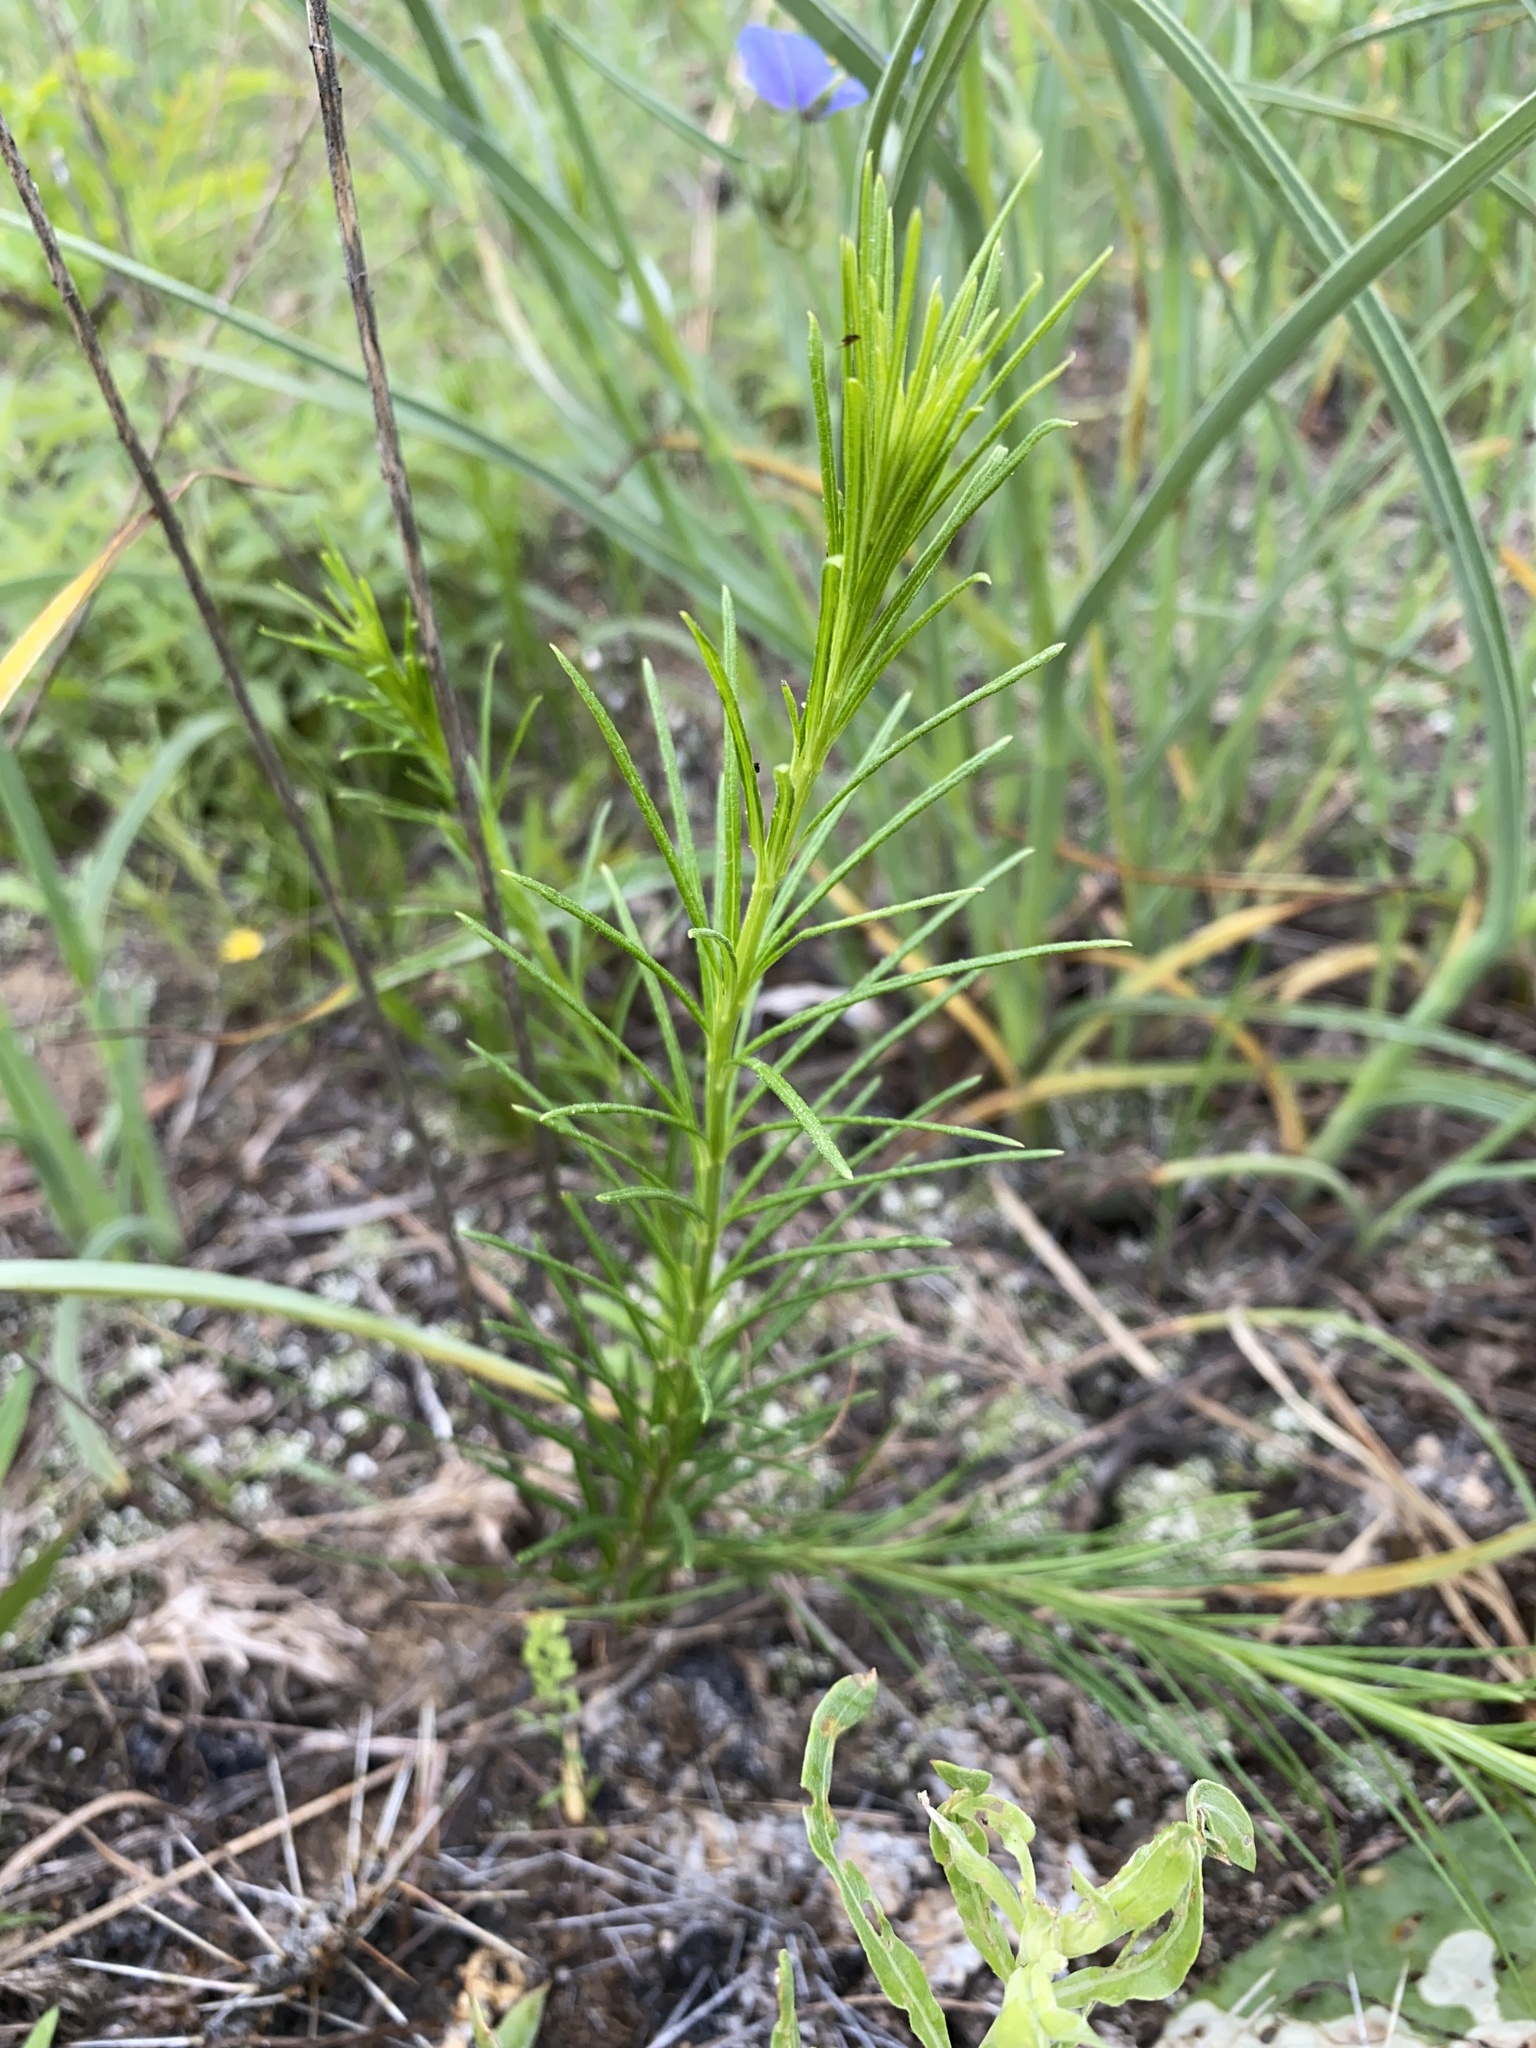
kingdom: Plantae
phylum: Tracheophyta
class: Magnoliopsida
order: Gentianales
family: Apocynaceae
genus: Asclepias
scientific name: Asclepias verticillata
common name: Eastern whorled milkweed
